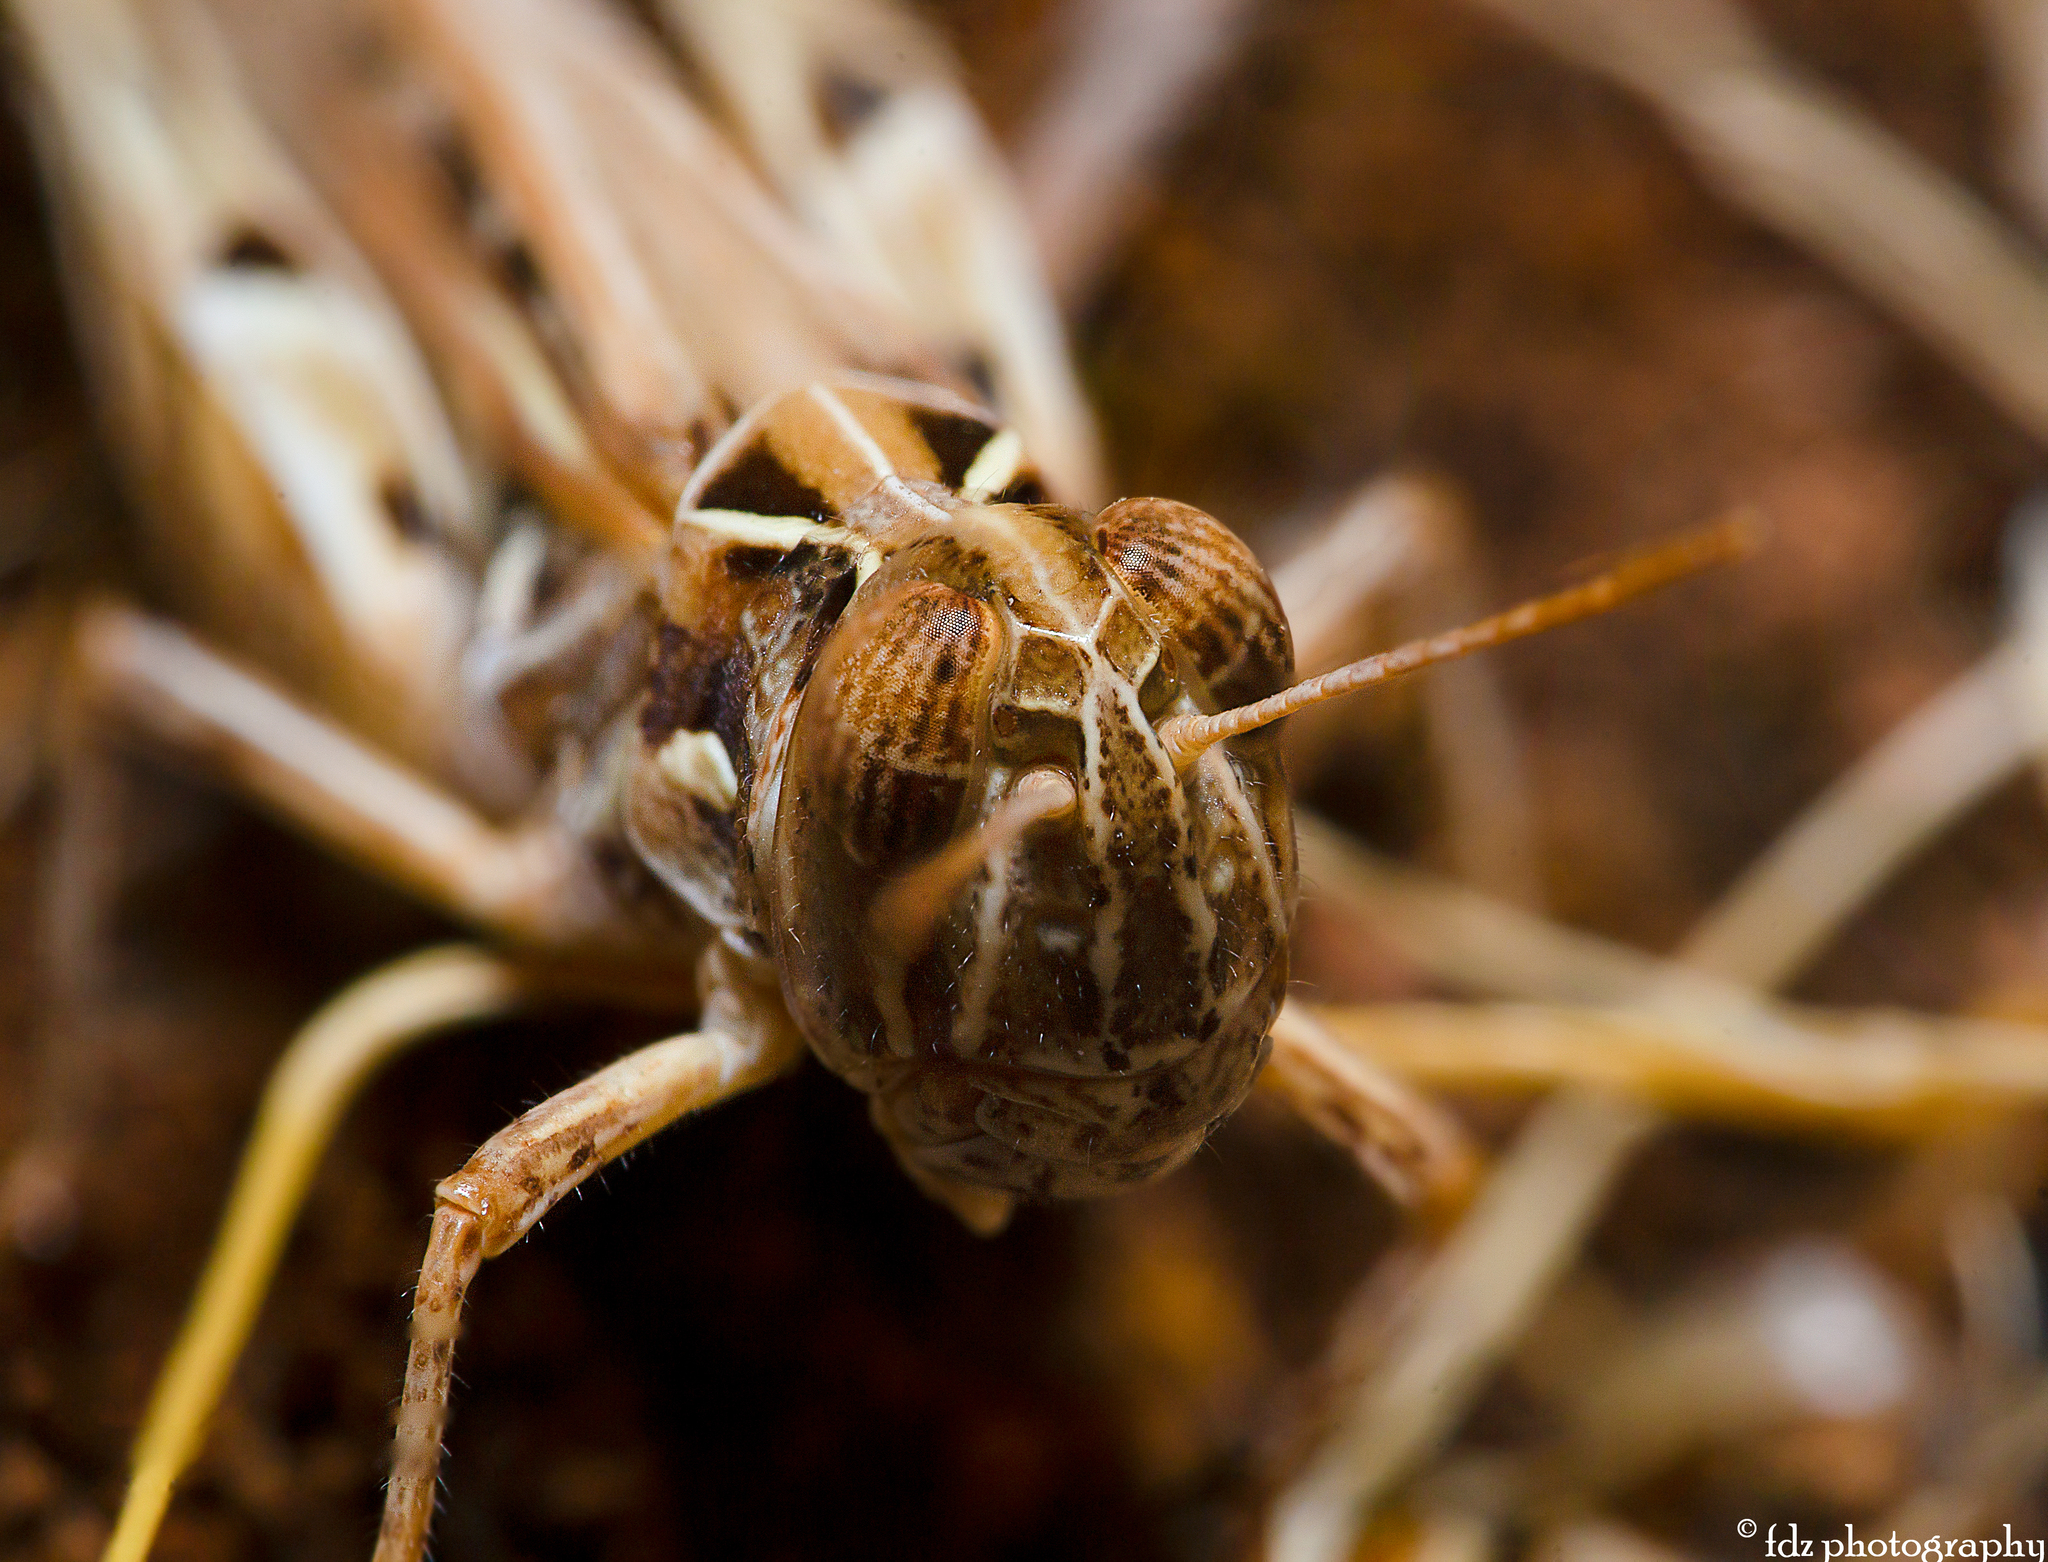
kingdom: Animalia
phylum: Arthropoda
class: Insecta
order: Orthoptera
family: Acrididae
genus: Dociostaurus
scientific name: Dociostaurus jagoi
